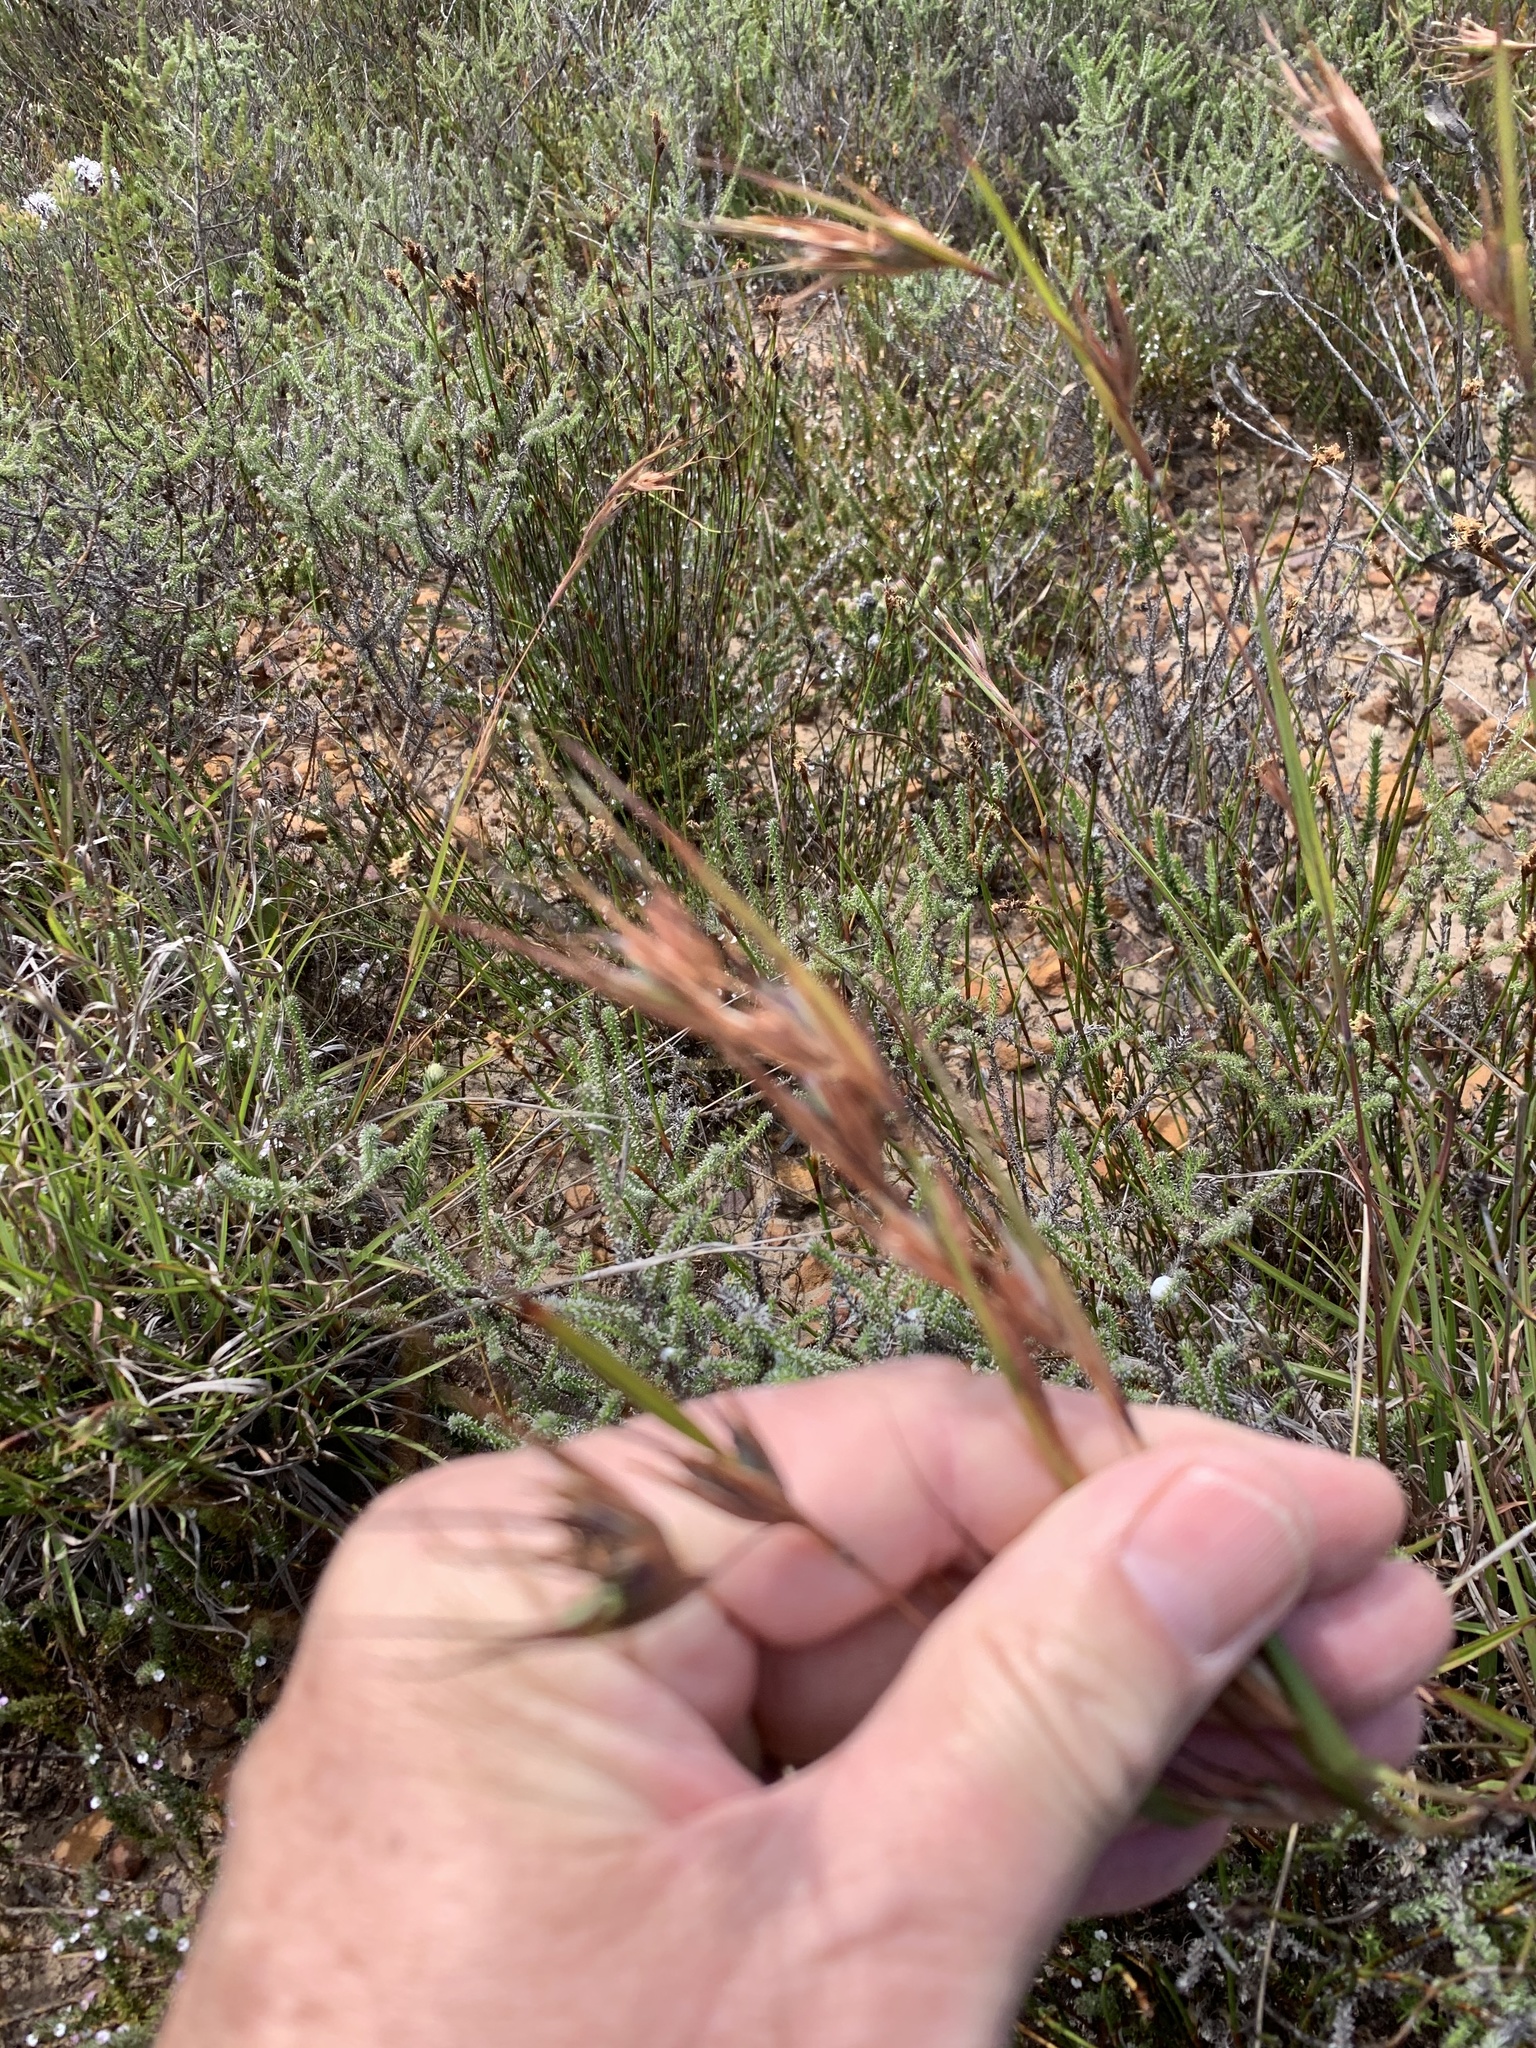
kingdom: Plantae
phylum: Tracheophyta
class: Liliopsida
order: Poales
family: Poaceae
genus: Themeda
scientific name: Themeda triandra
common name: Kangaroo grass
